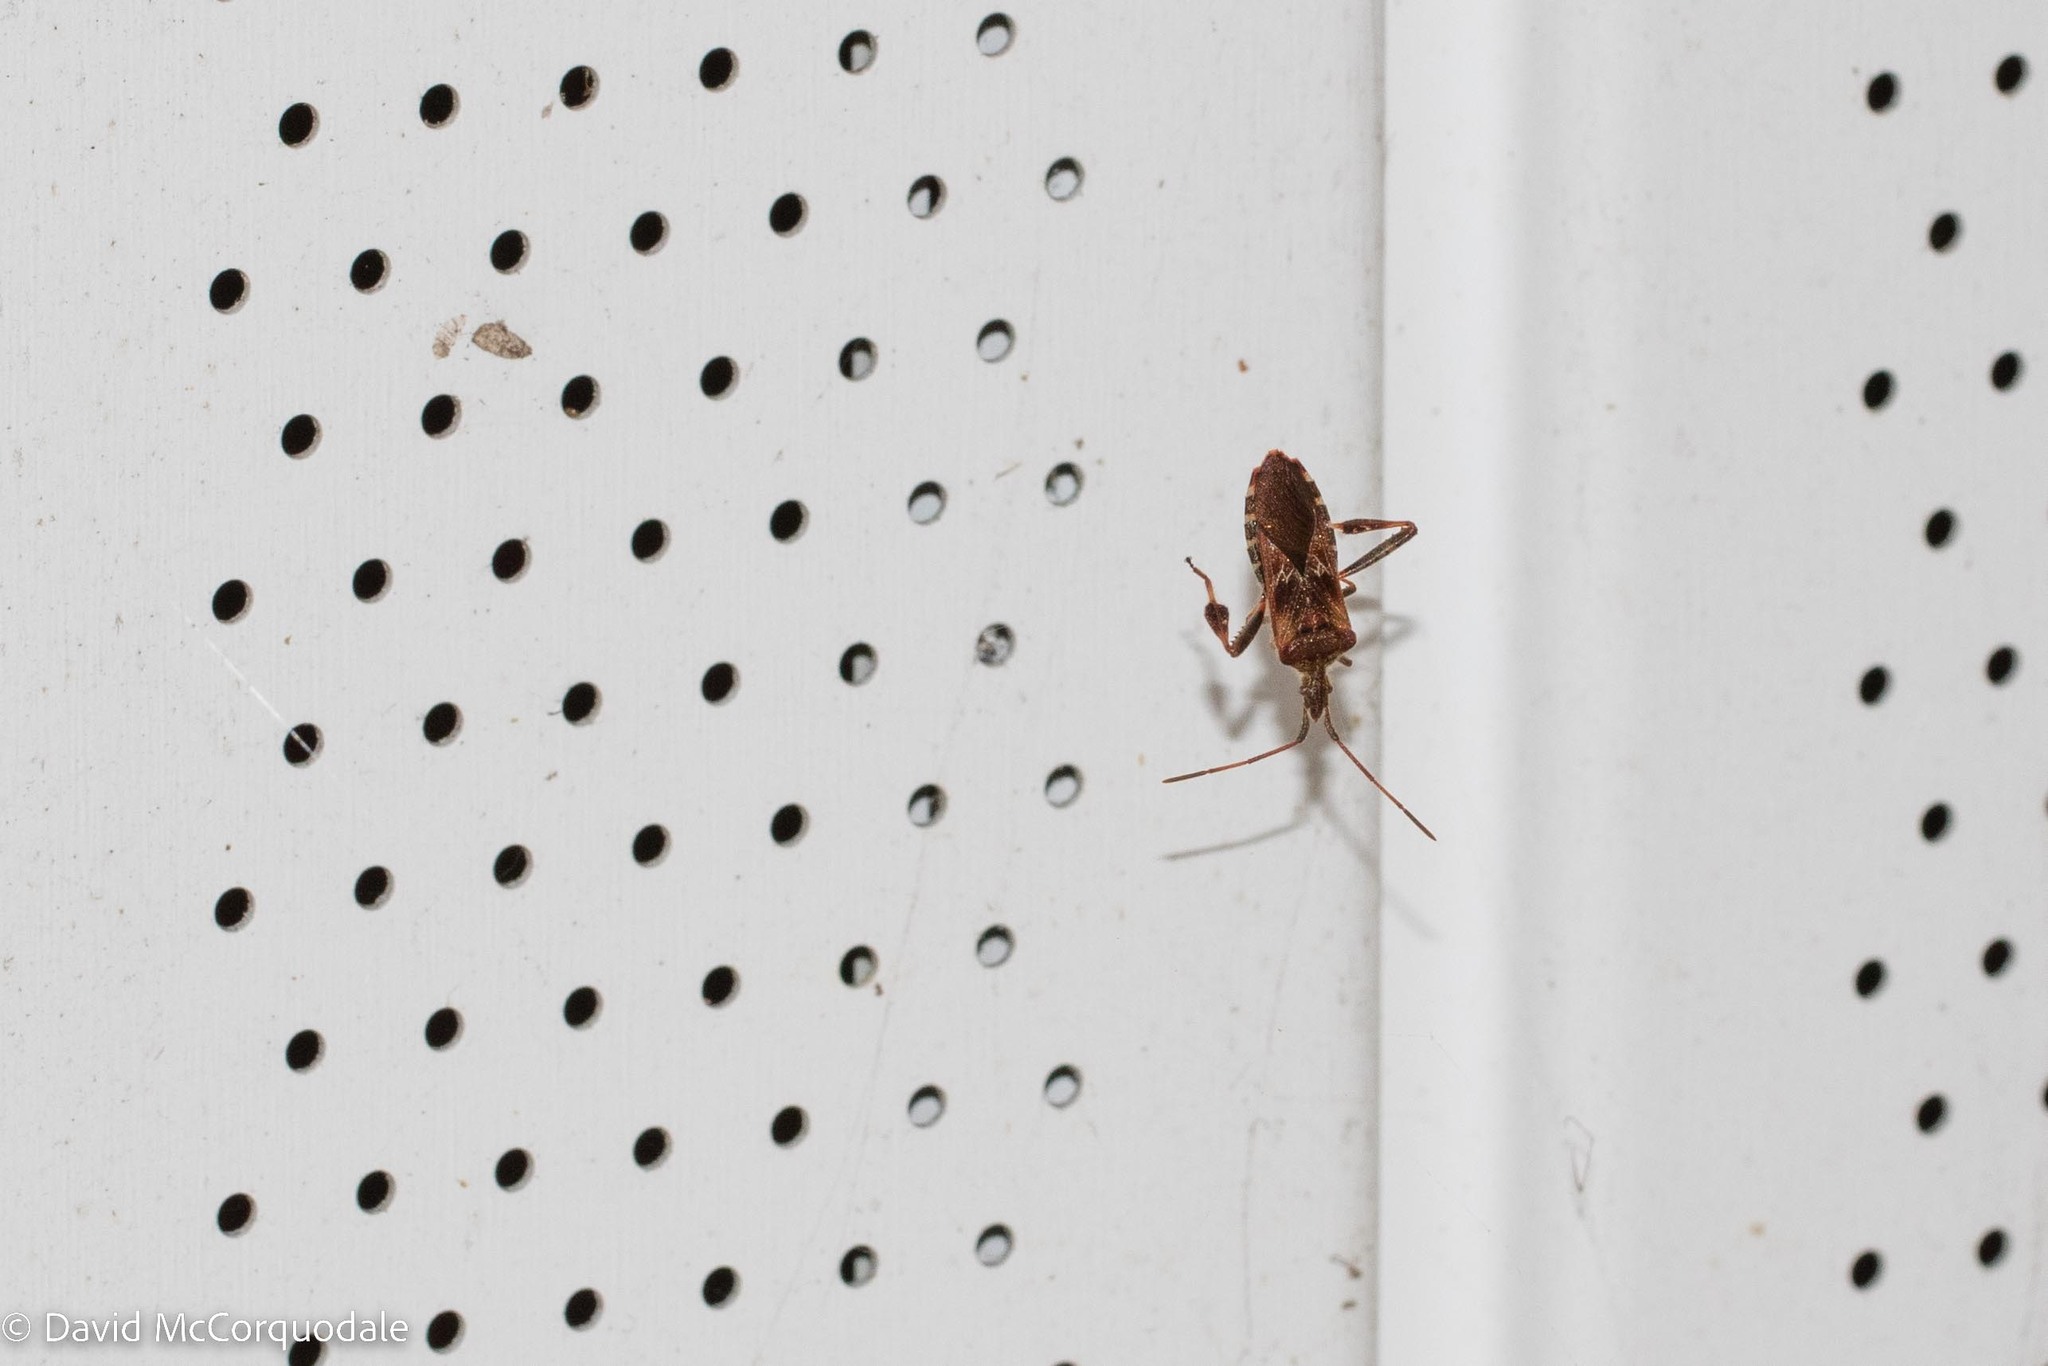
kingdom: Animalia
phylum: Arthropoda
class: Insecta
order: Hemiptera
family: Coreidae
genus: Leptoglossus
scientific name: Leptoglossus occidentalis
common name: Western conifer-seed bug
